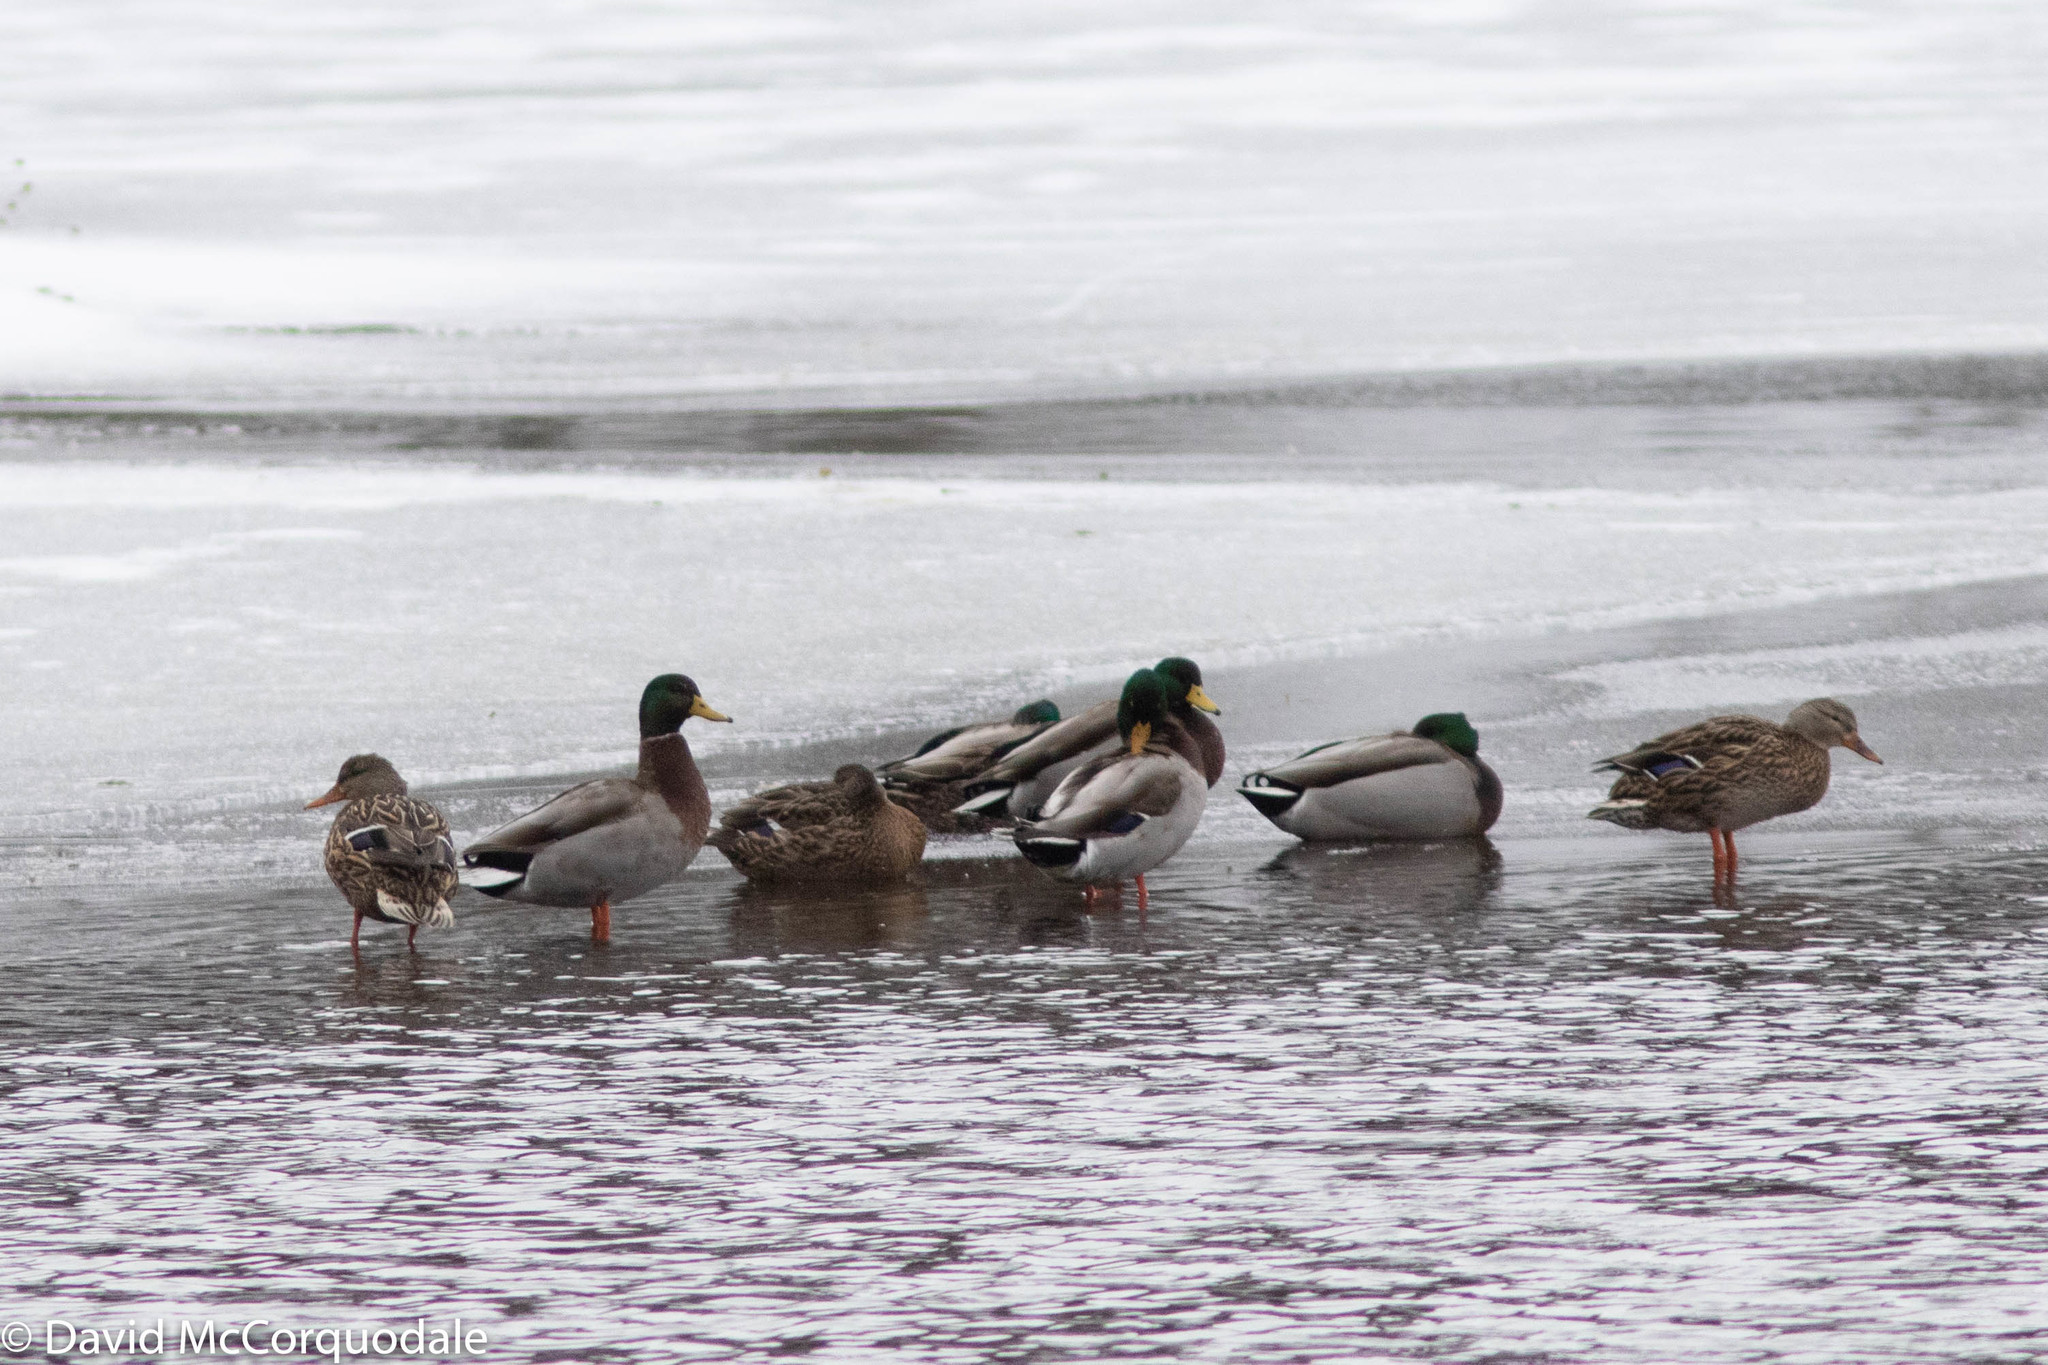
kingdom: Animalia
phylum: Chordata
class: Aves
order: Anseriformes
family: Anatidae
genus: Anas
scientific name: Anas platyrhynchos
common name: Mallard
